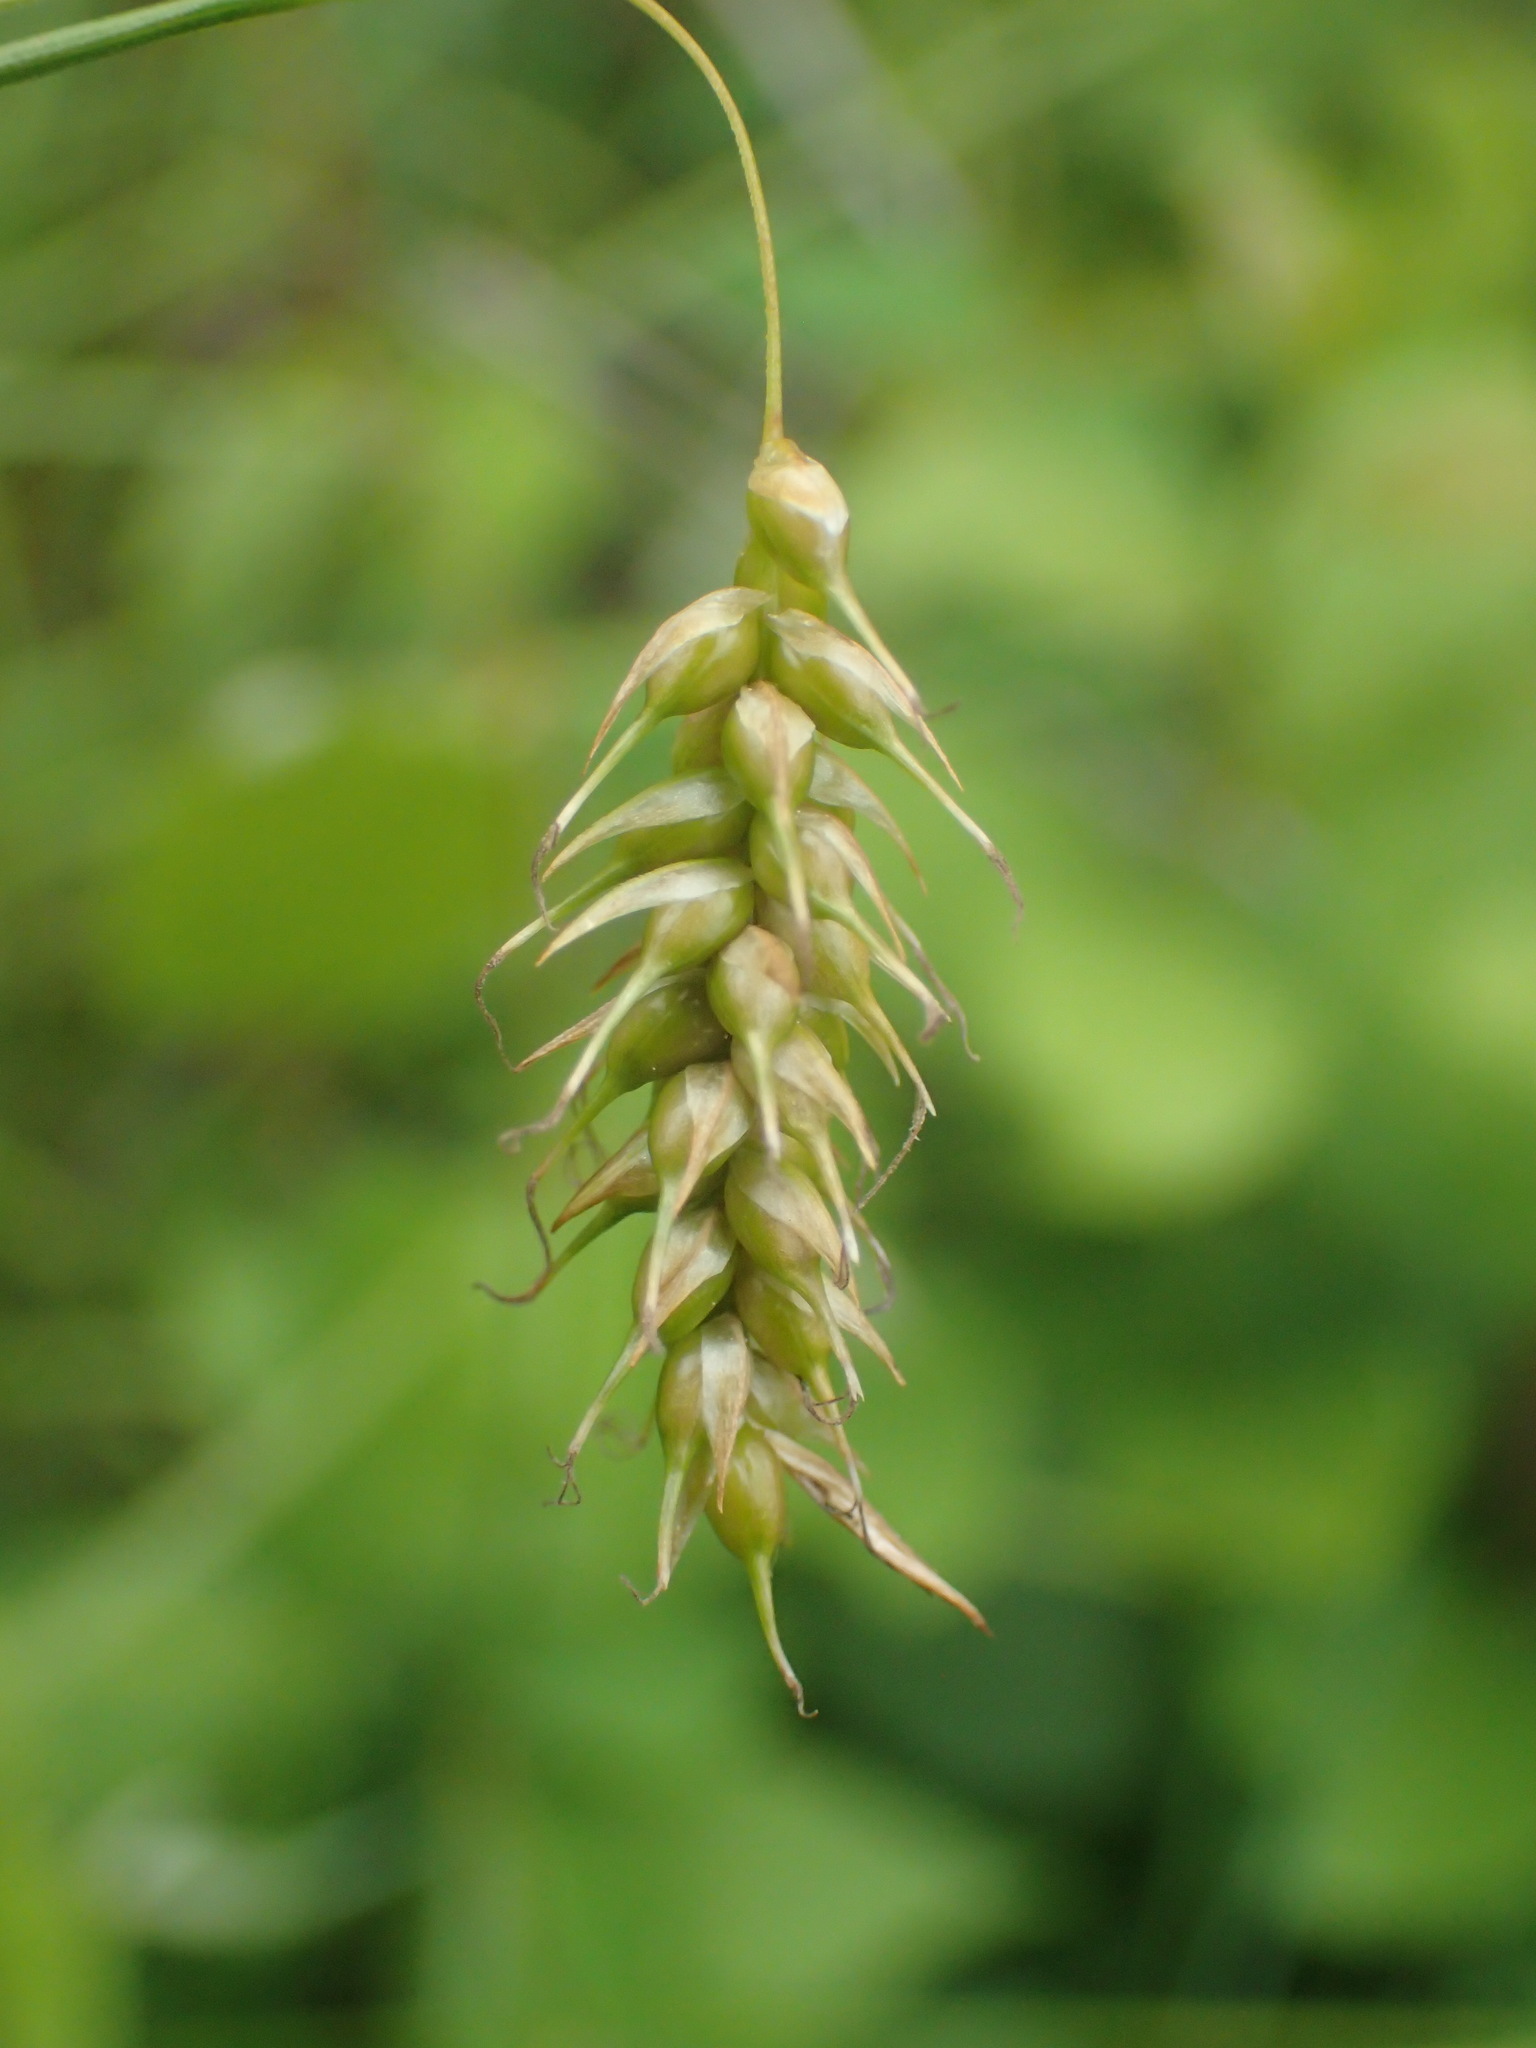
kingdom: Plantae
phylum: Tracheophyta
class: Liliopsida
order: Poales
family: Cyperaceae
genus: Carex
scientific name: Carex sprengelii
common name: Long-beaked sedge
